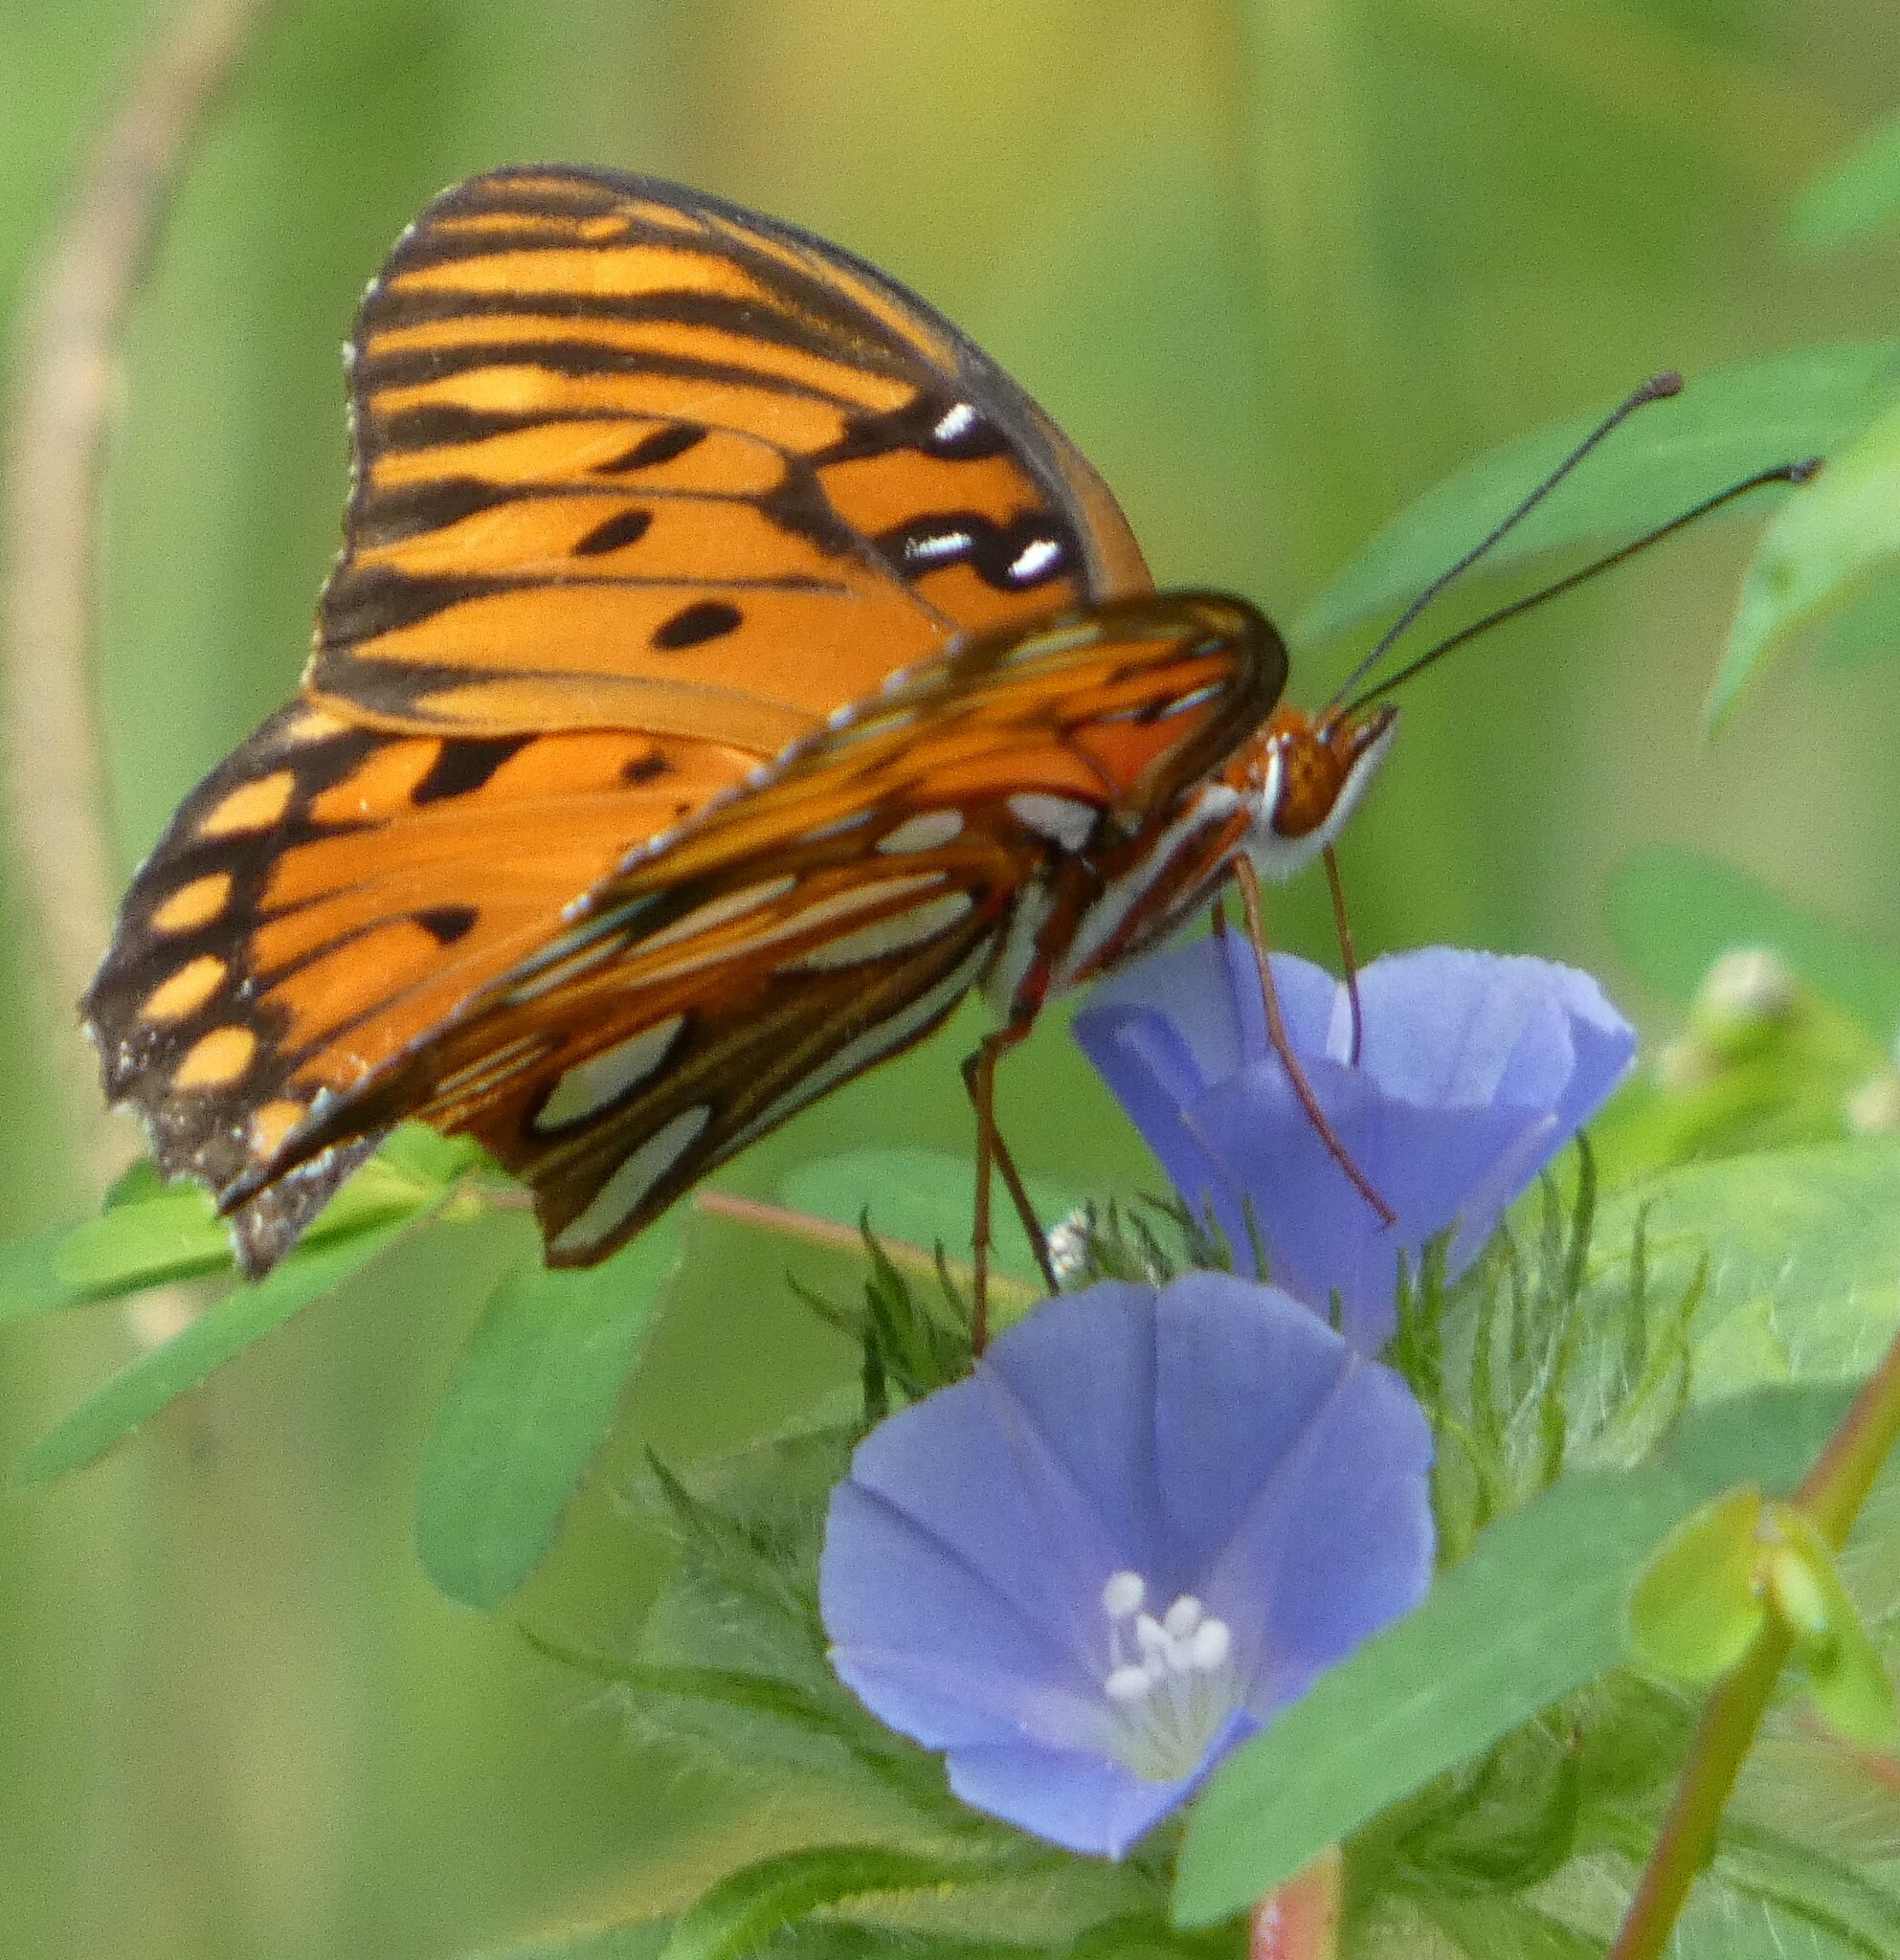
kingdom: Animalia
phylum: Arthropoda
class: Insecta
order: Lepidoptera
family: Nymphalidae
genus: Dione
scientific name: Dione vanillae
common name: Gulf fritillary
